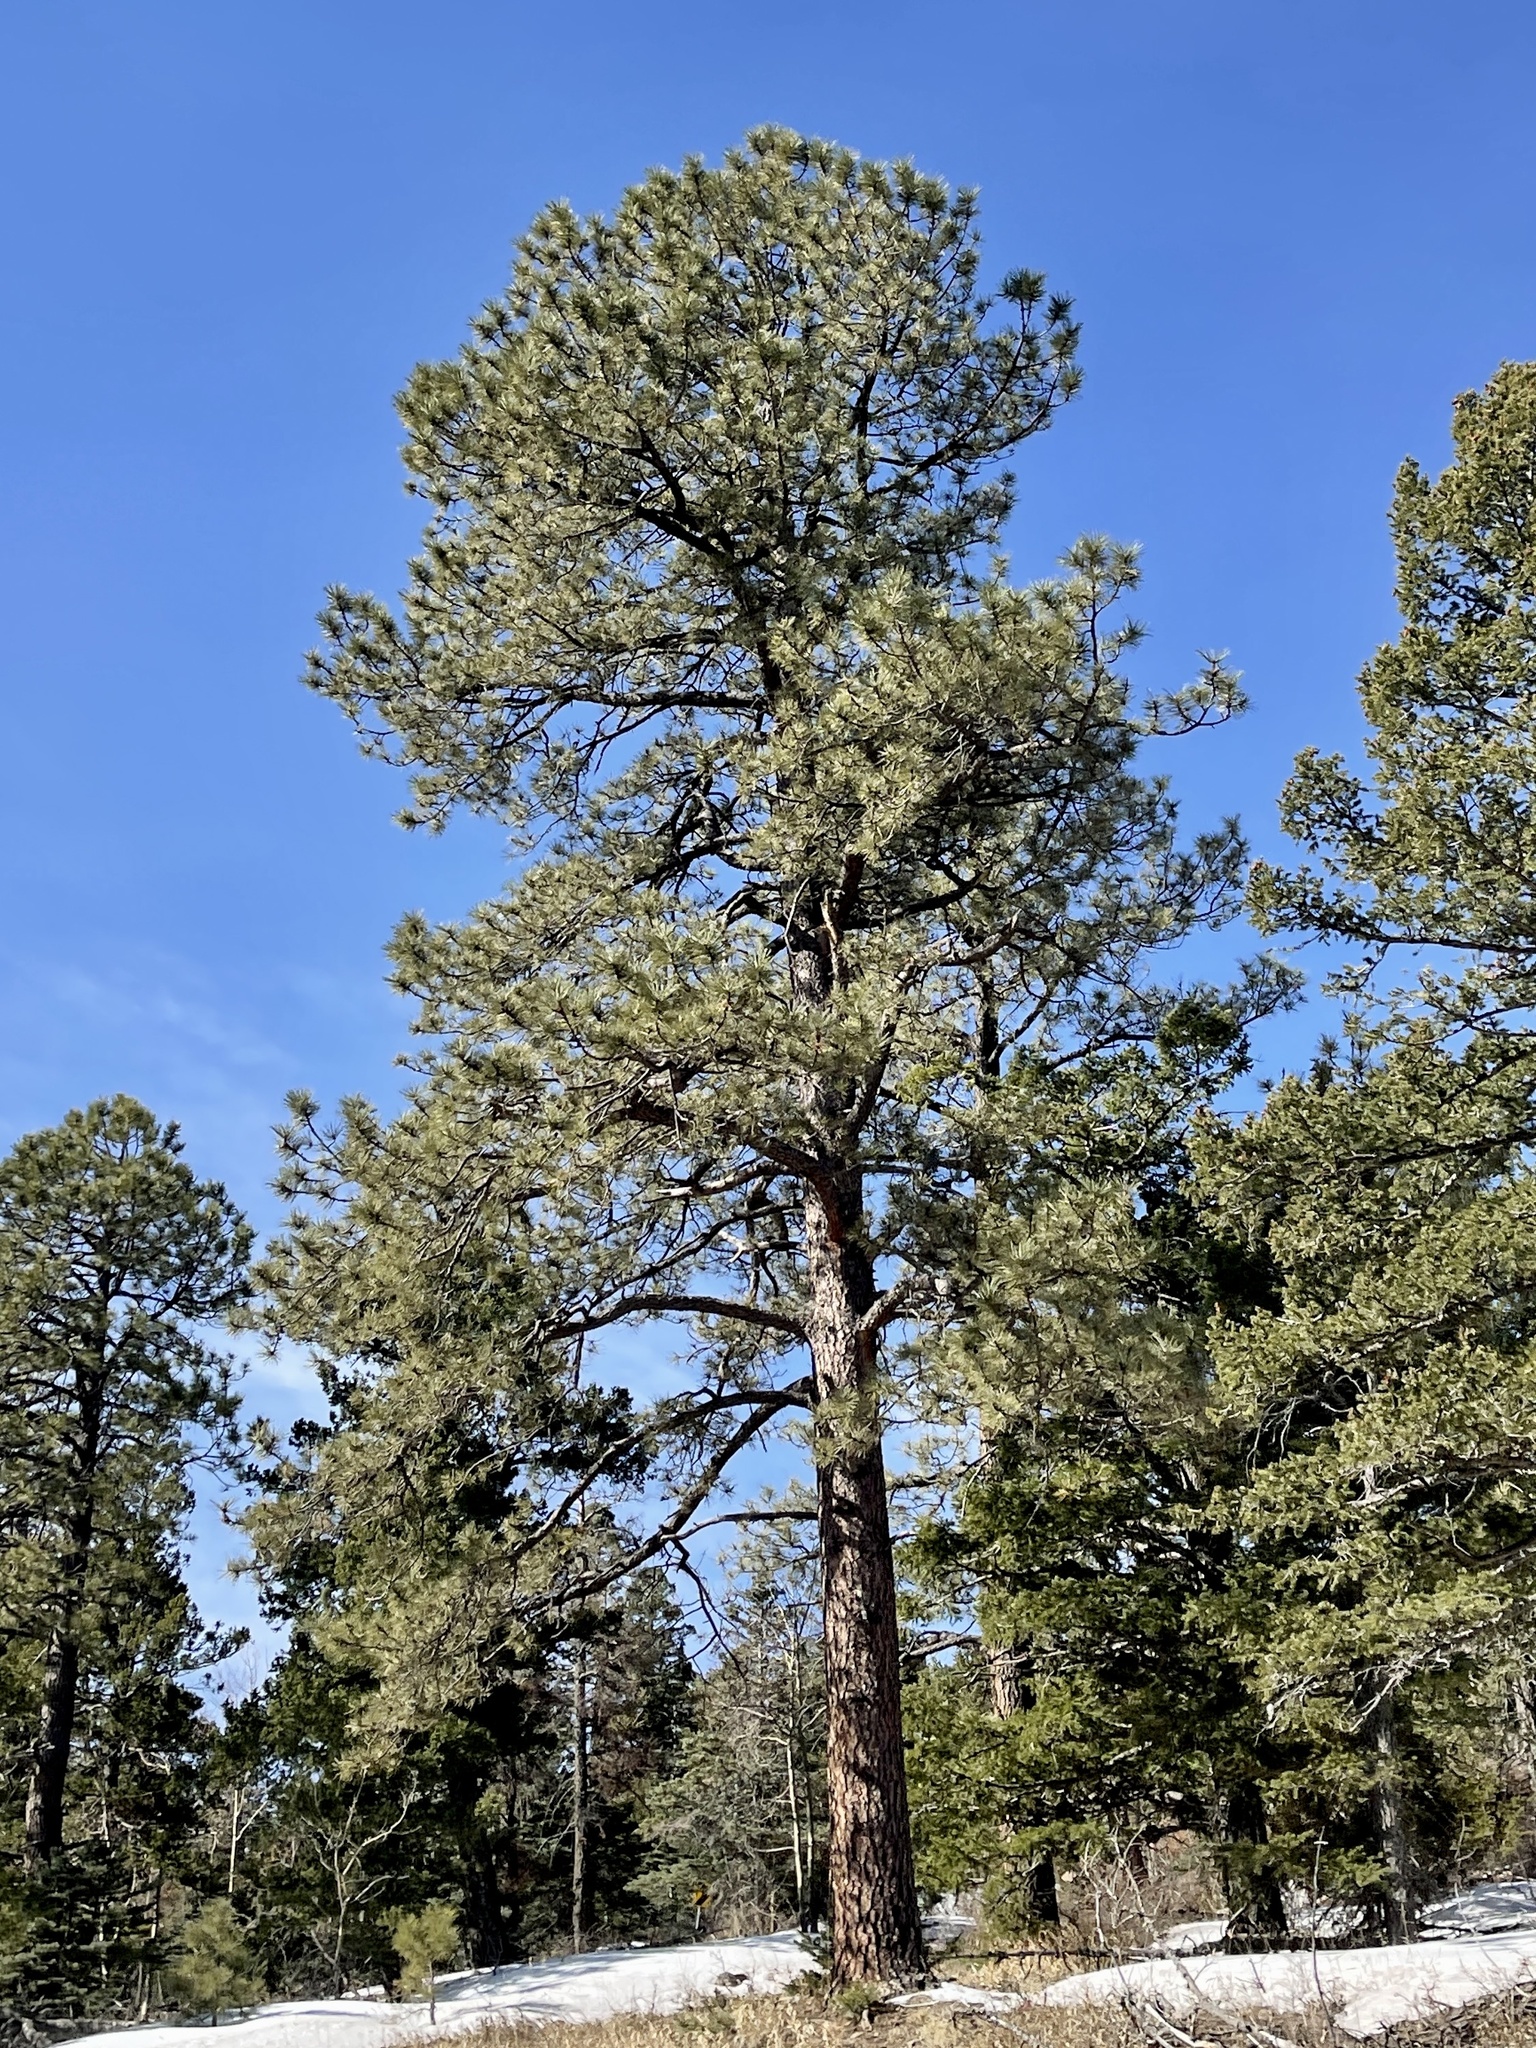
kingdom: Plantae
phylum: Tracheophyta
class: Pinopsida
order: Pinales
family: Pinaceae
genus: Pinus
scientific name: Pinus ponderosa
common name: Western yellow-pine
